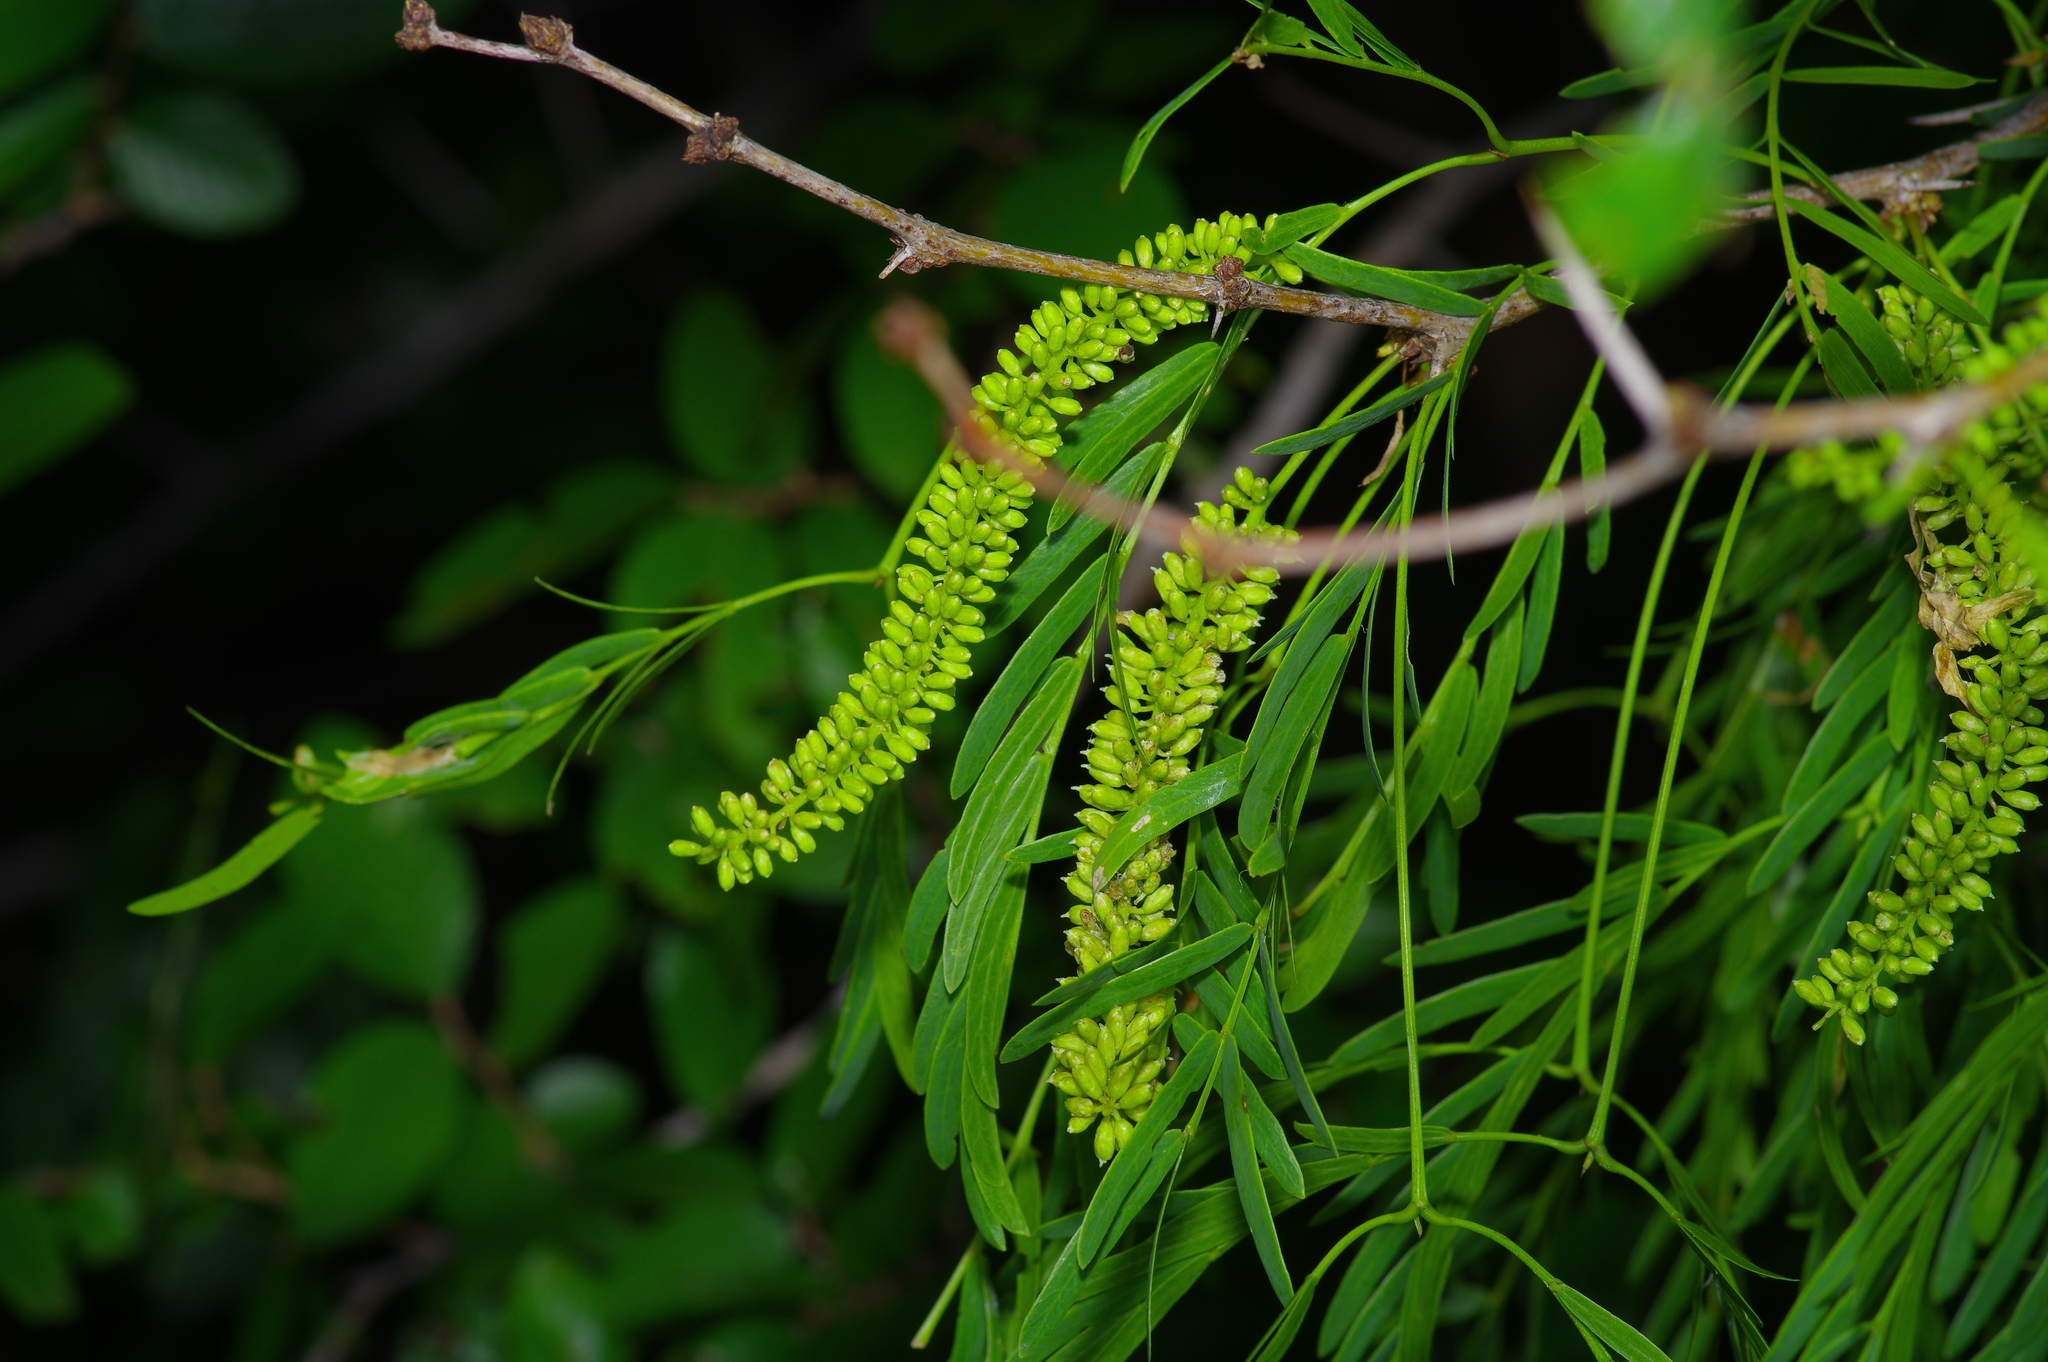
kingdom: Plantae
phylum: Tracheophyta
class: Magnoliopsida
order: Fabales
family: Fabaceae
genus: Prosopis
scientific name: Prosopis glandulosa
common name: Honey mesquite
